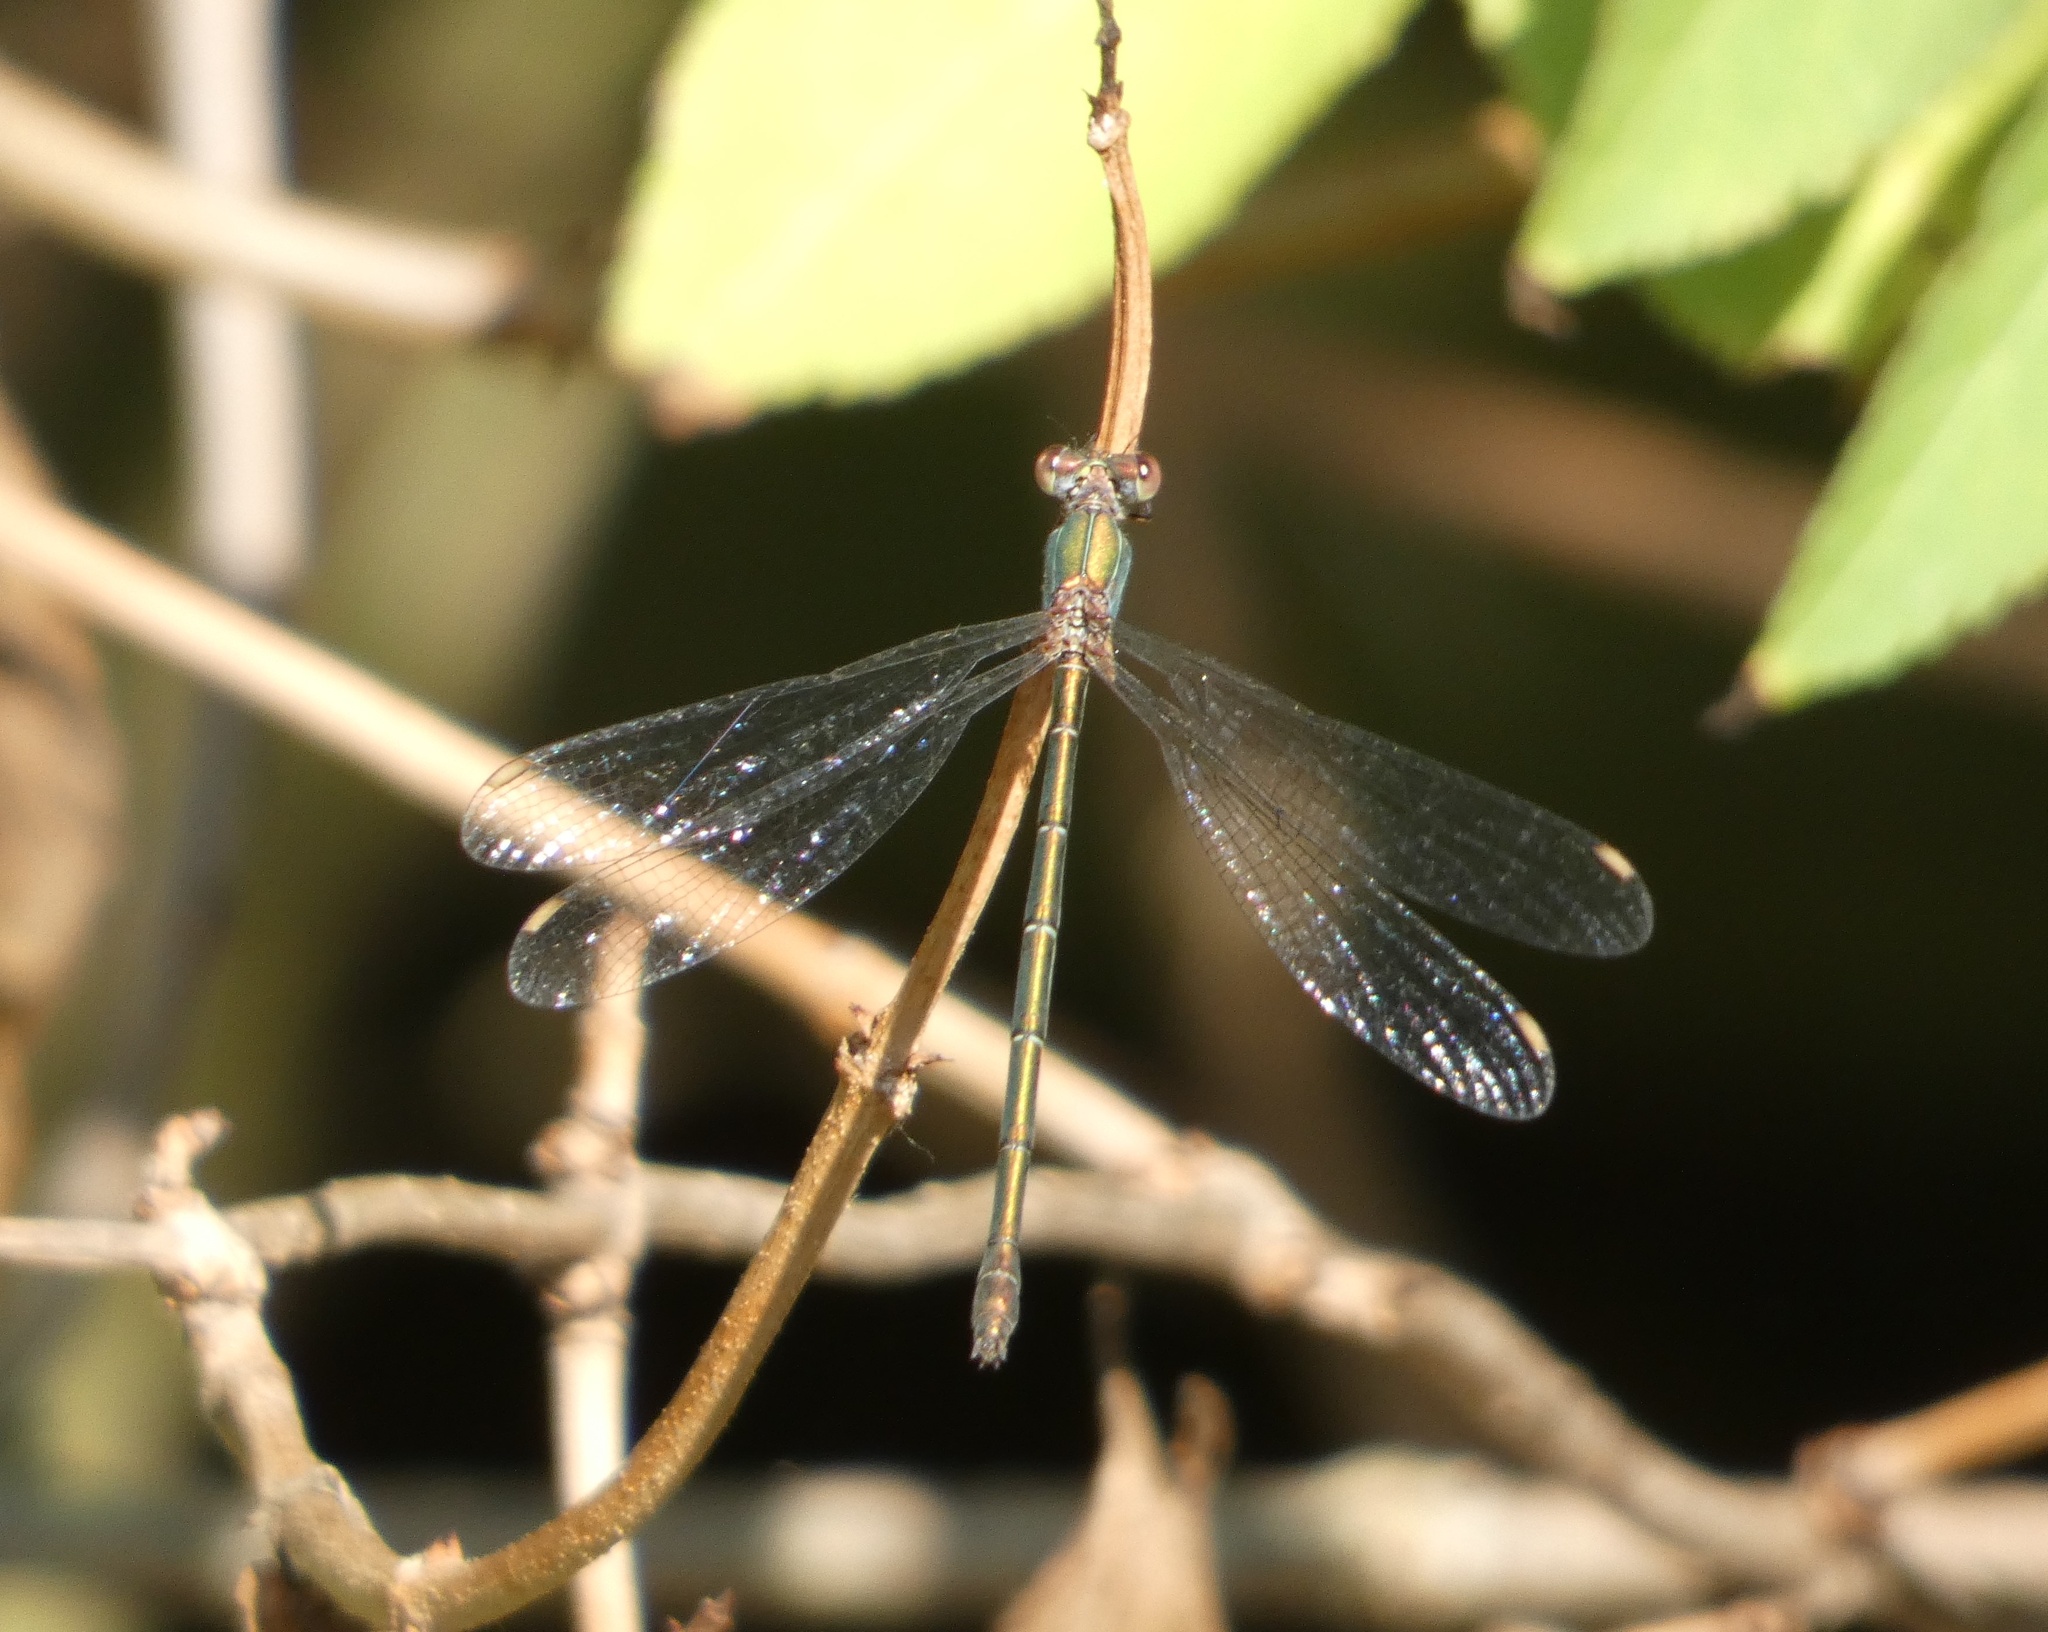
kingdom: Animalia
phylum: Arthropoda
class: Insecta
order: Odonata
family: Lestidae
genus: Chalcolestes
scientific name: Chalcolestes viridis
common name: Green emerald damselfly
